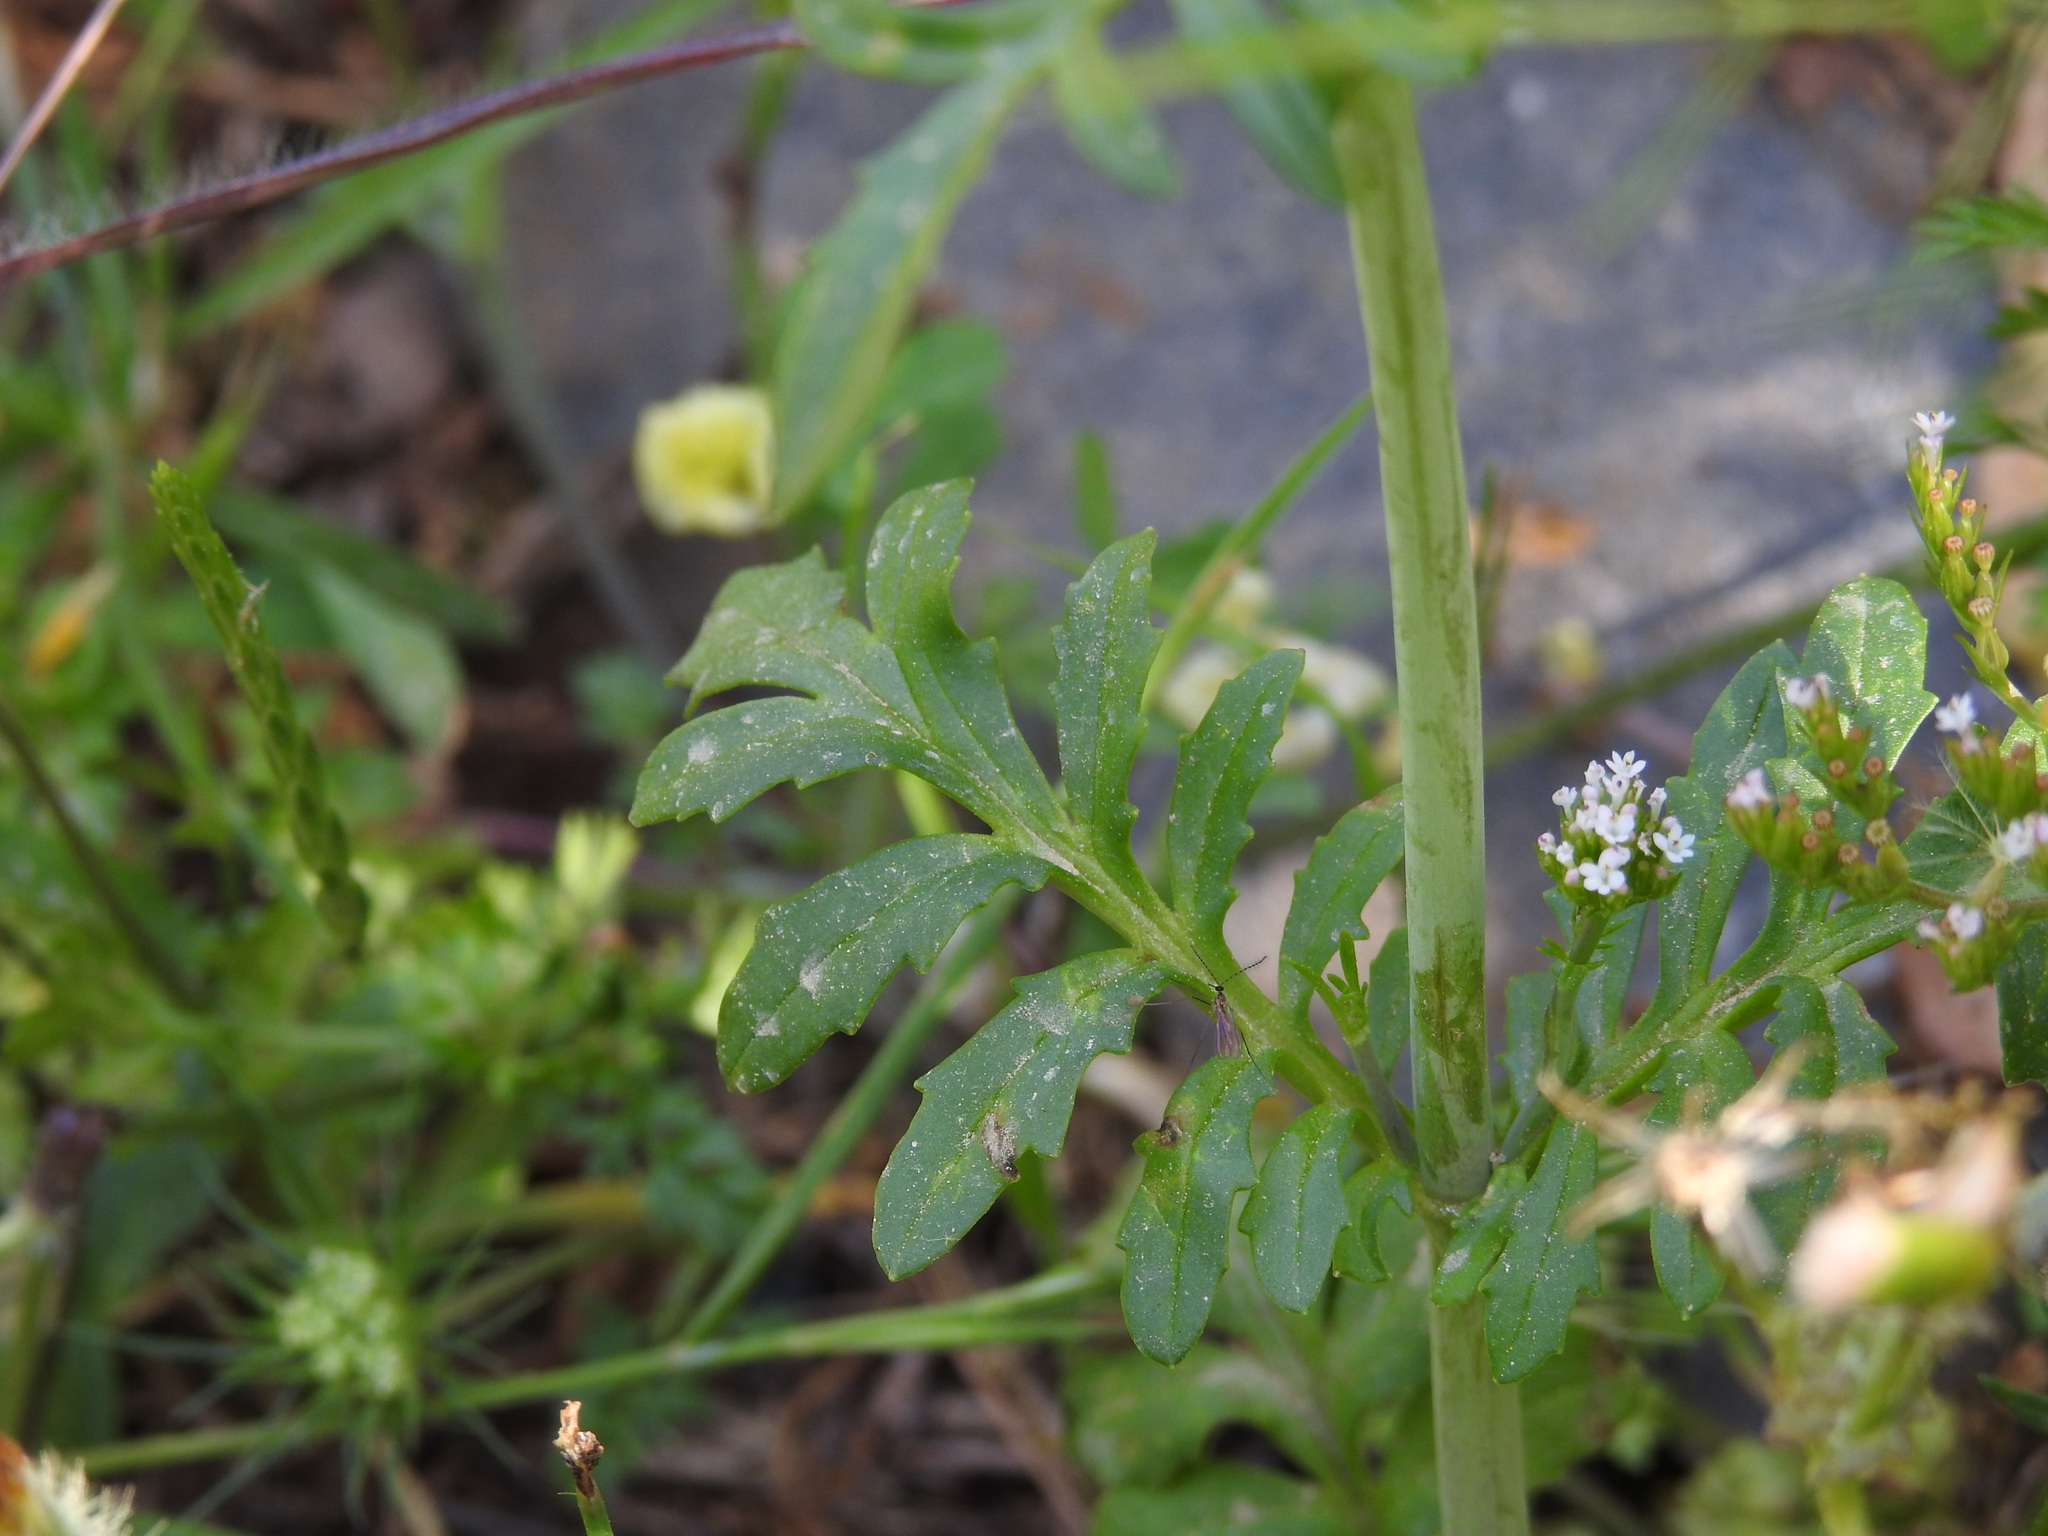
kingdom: Plantae
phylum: Tracheophyta
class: Magnoliopsida
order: Dipsacales
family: Caprifoliaceae
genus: Centranthus
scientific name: Centranthus calcitrapae
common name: Annual valerian
